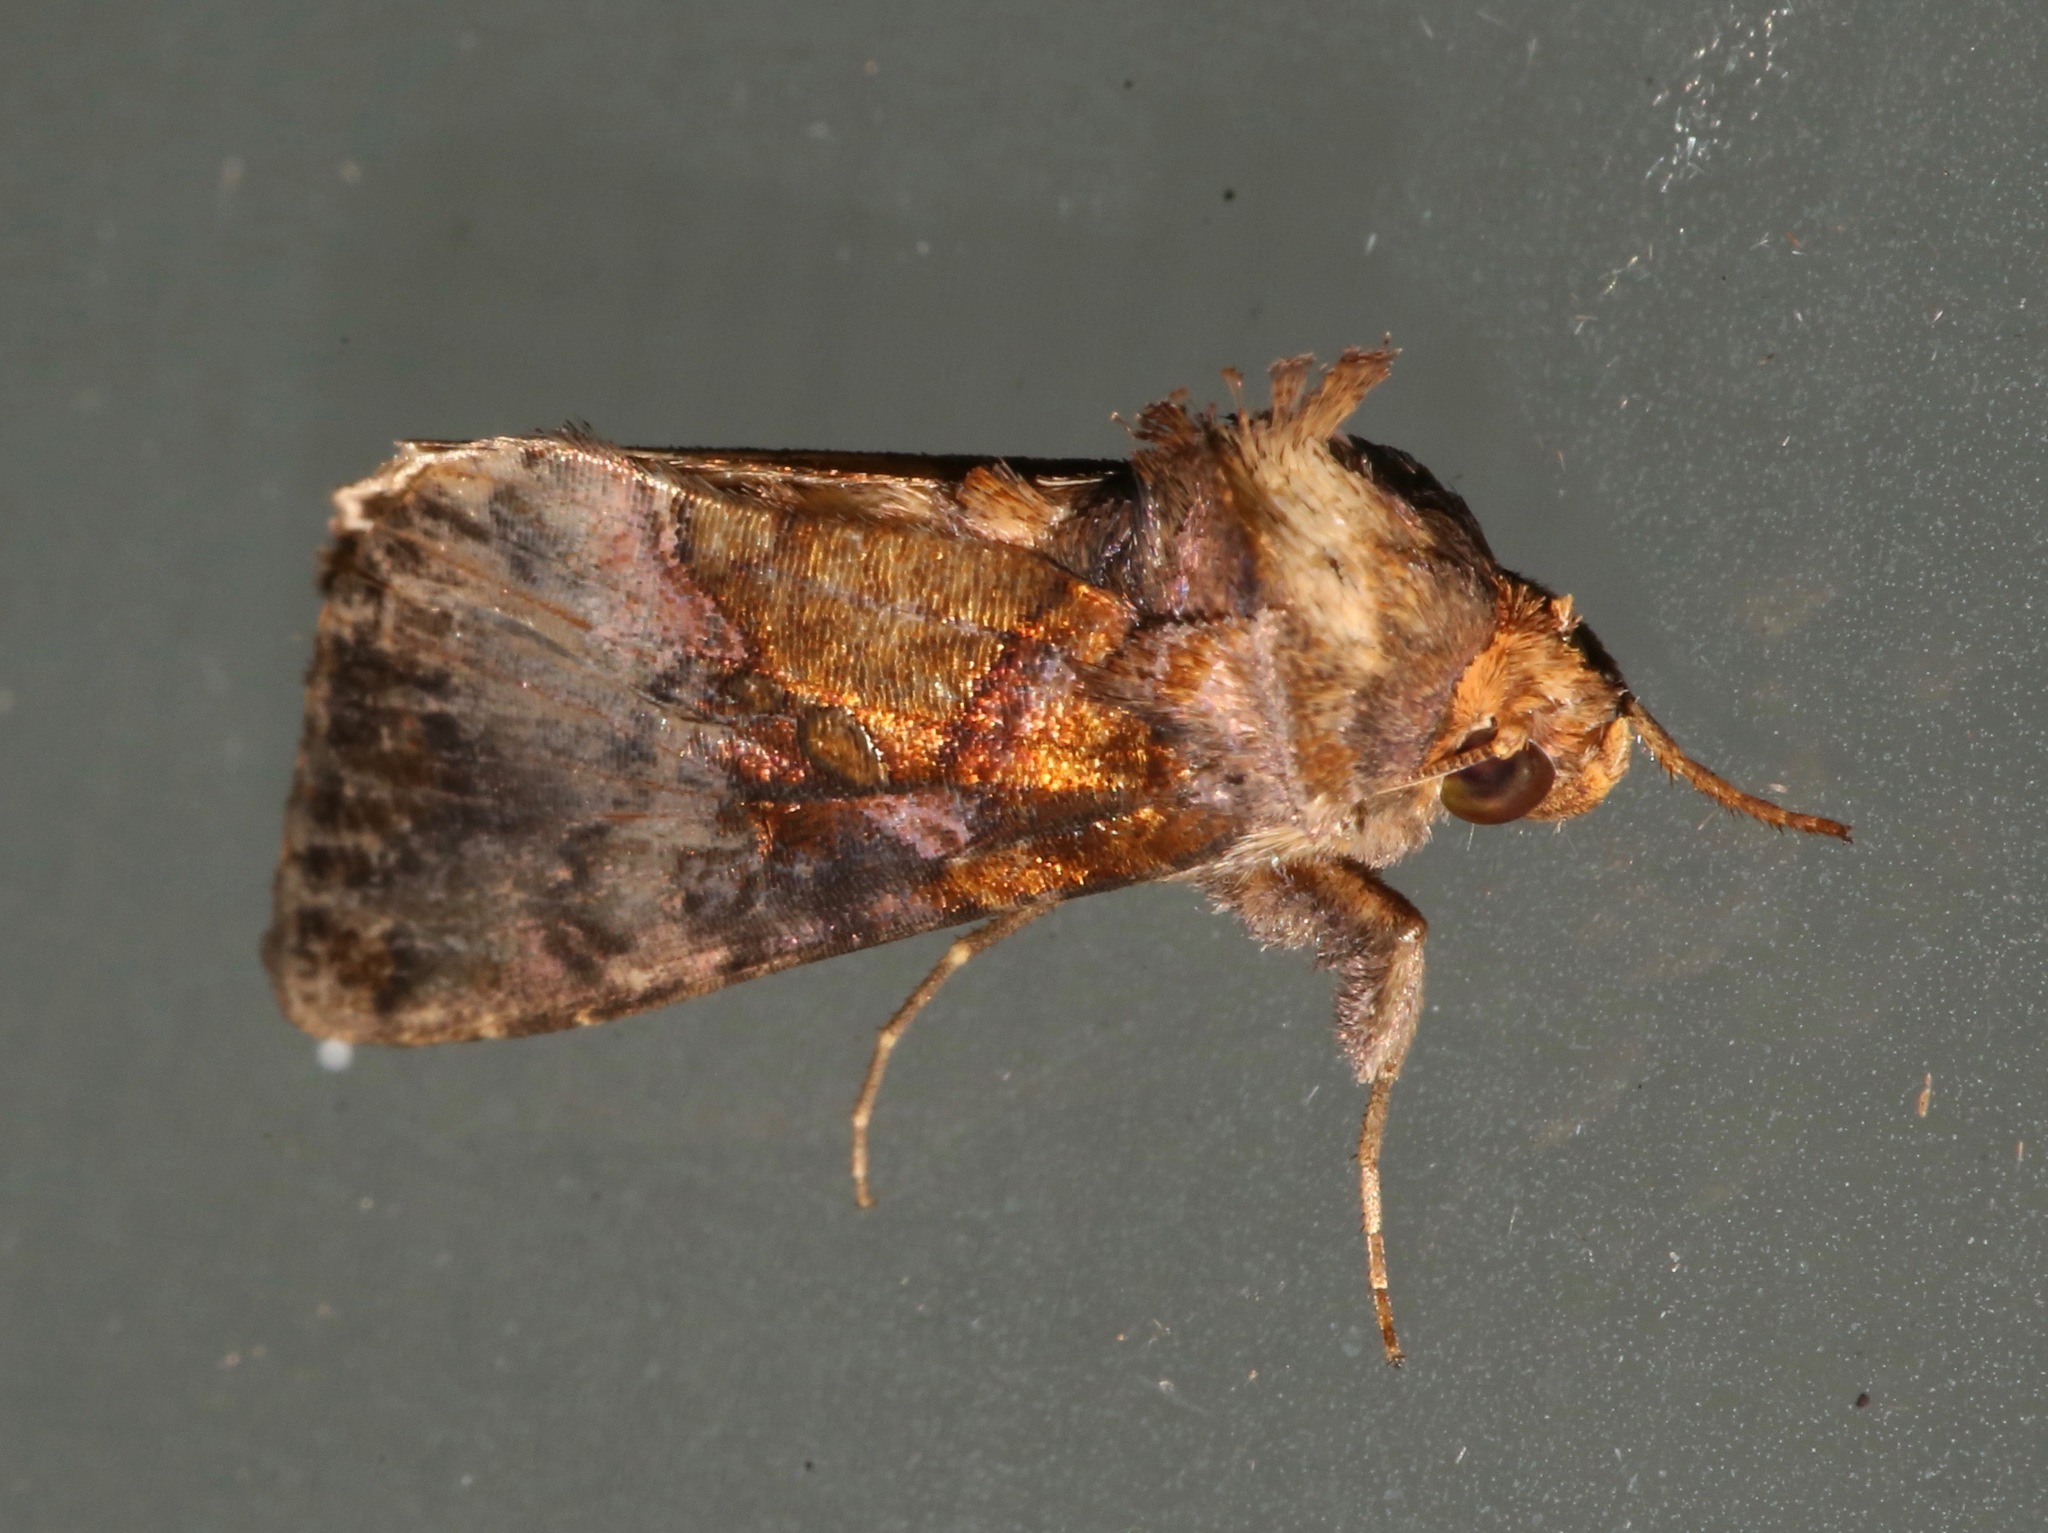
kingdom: Animalia
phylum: Arthropoda
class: Insecta
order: Lepidoptera
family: Noctuidae
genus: Argyrogramma
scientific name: Argyrogramma verruca
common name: Golden looper moth
